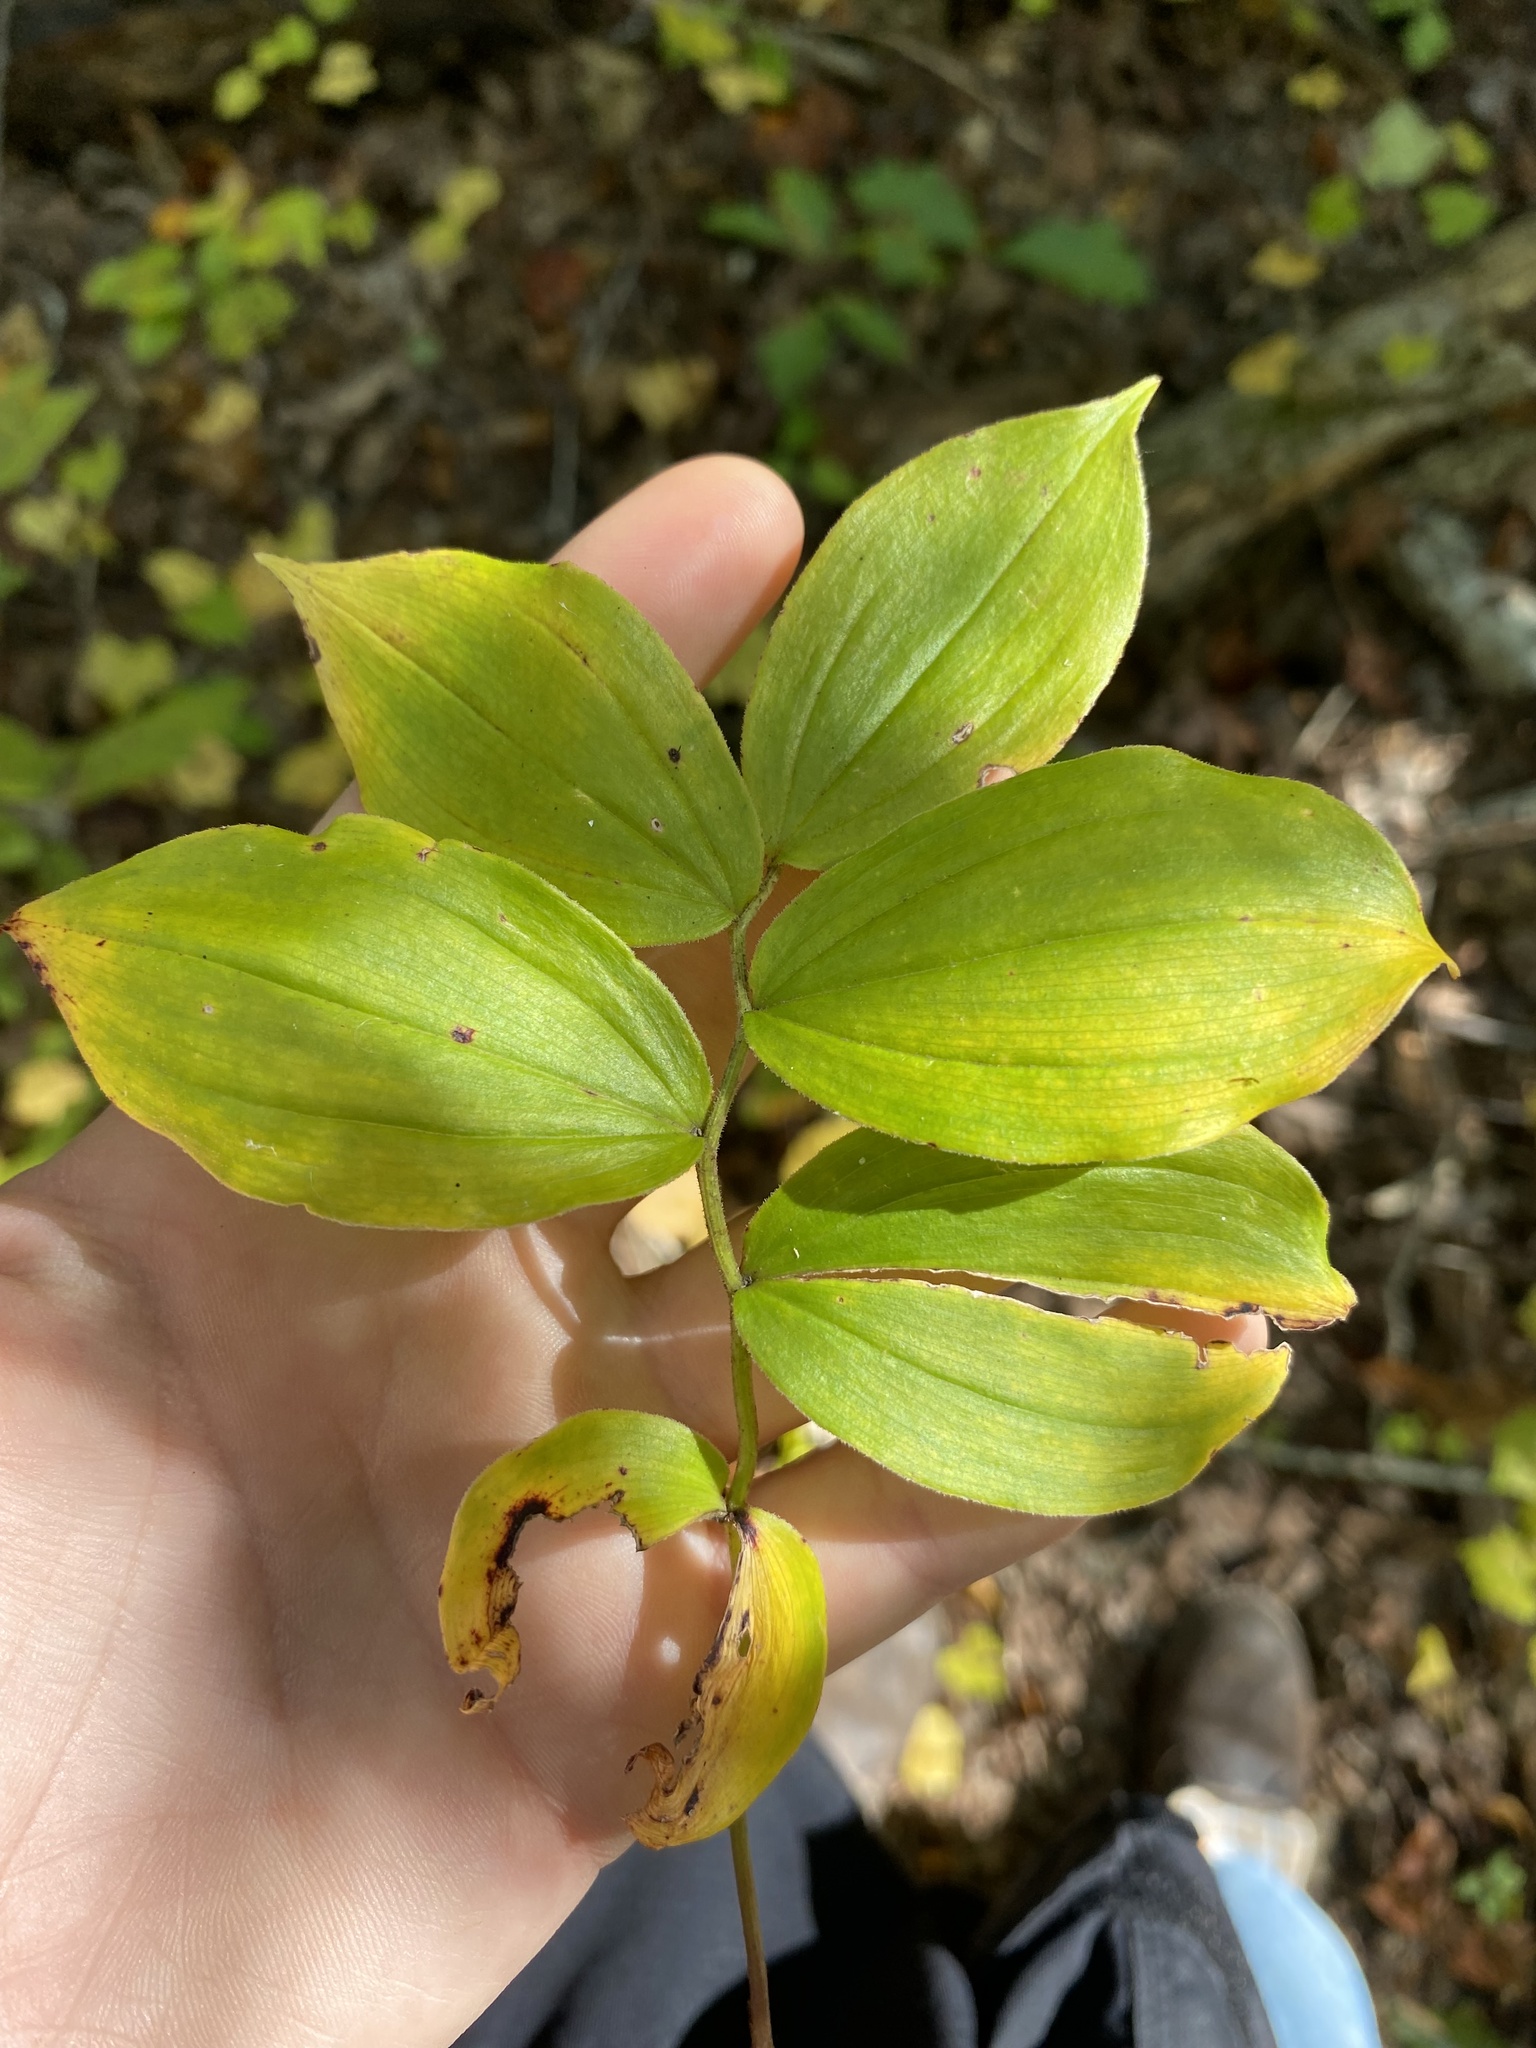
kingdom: Plantae
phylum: Tracheophyta
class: Liliopsida
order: Asparagales
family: Asparagaceae
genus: Maianthemum
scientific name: Maianthemum racemosum
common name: False spikenard
